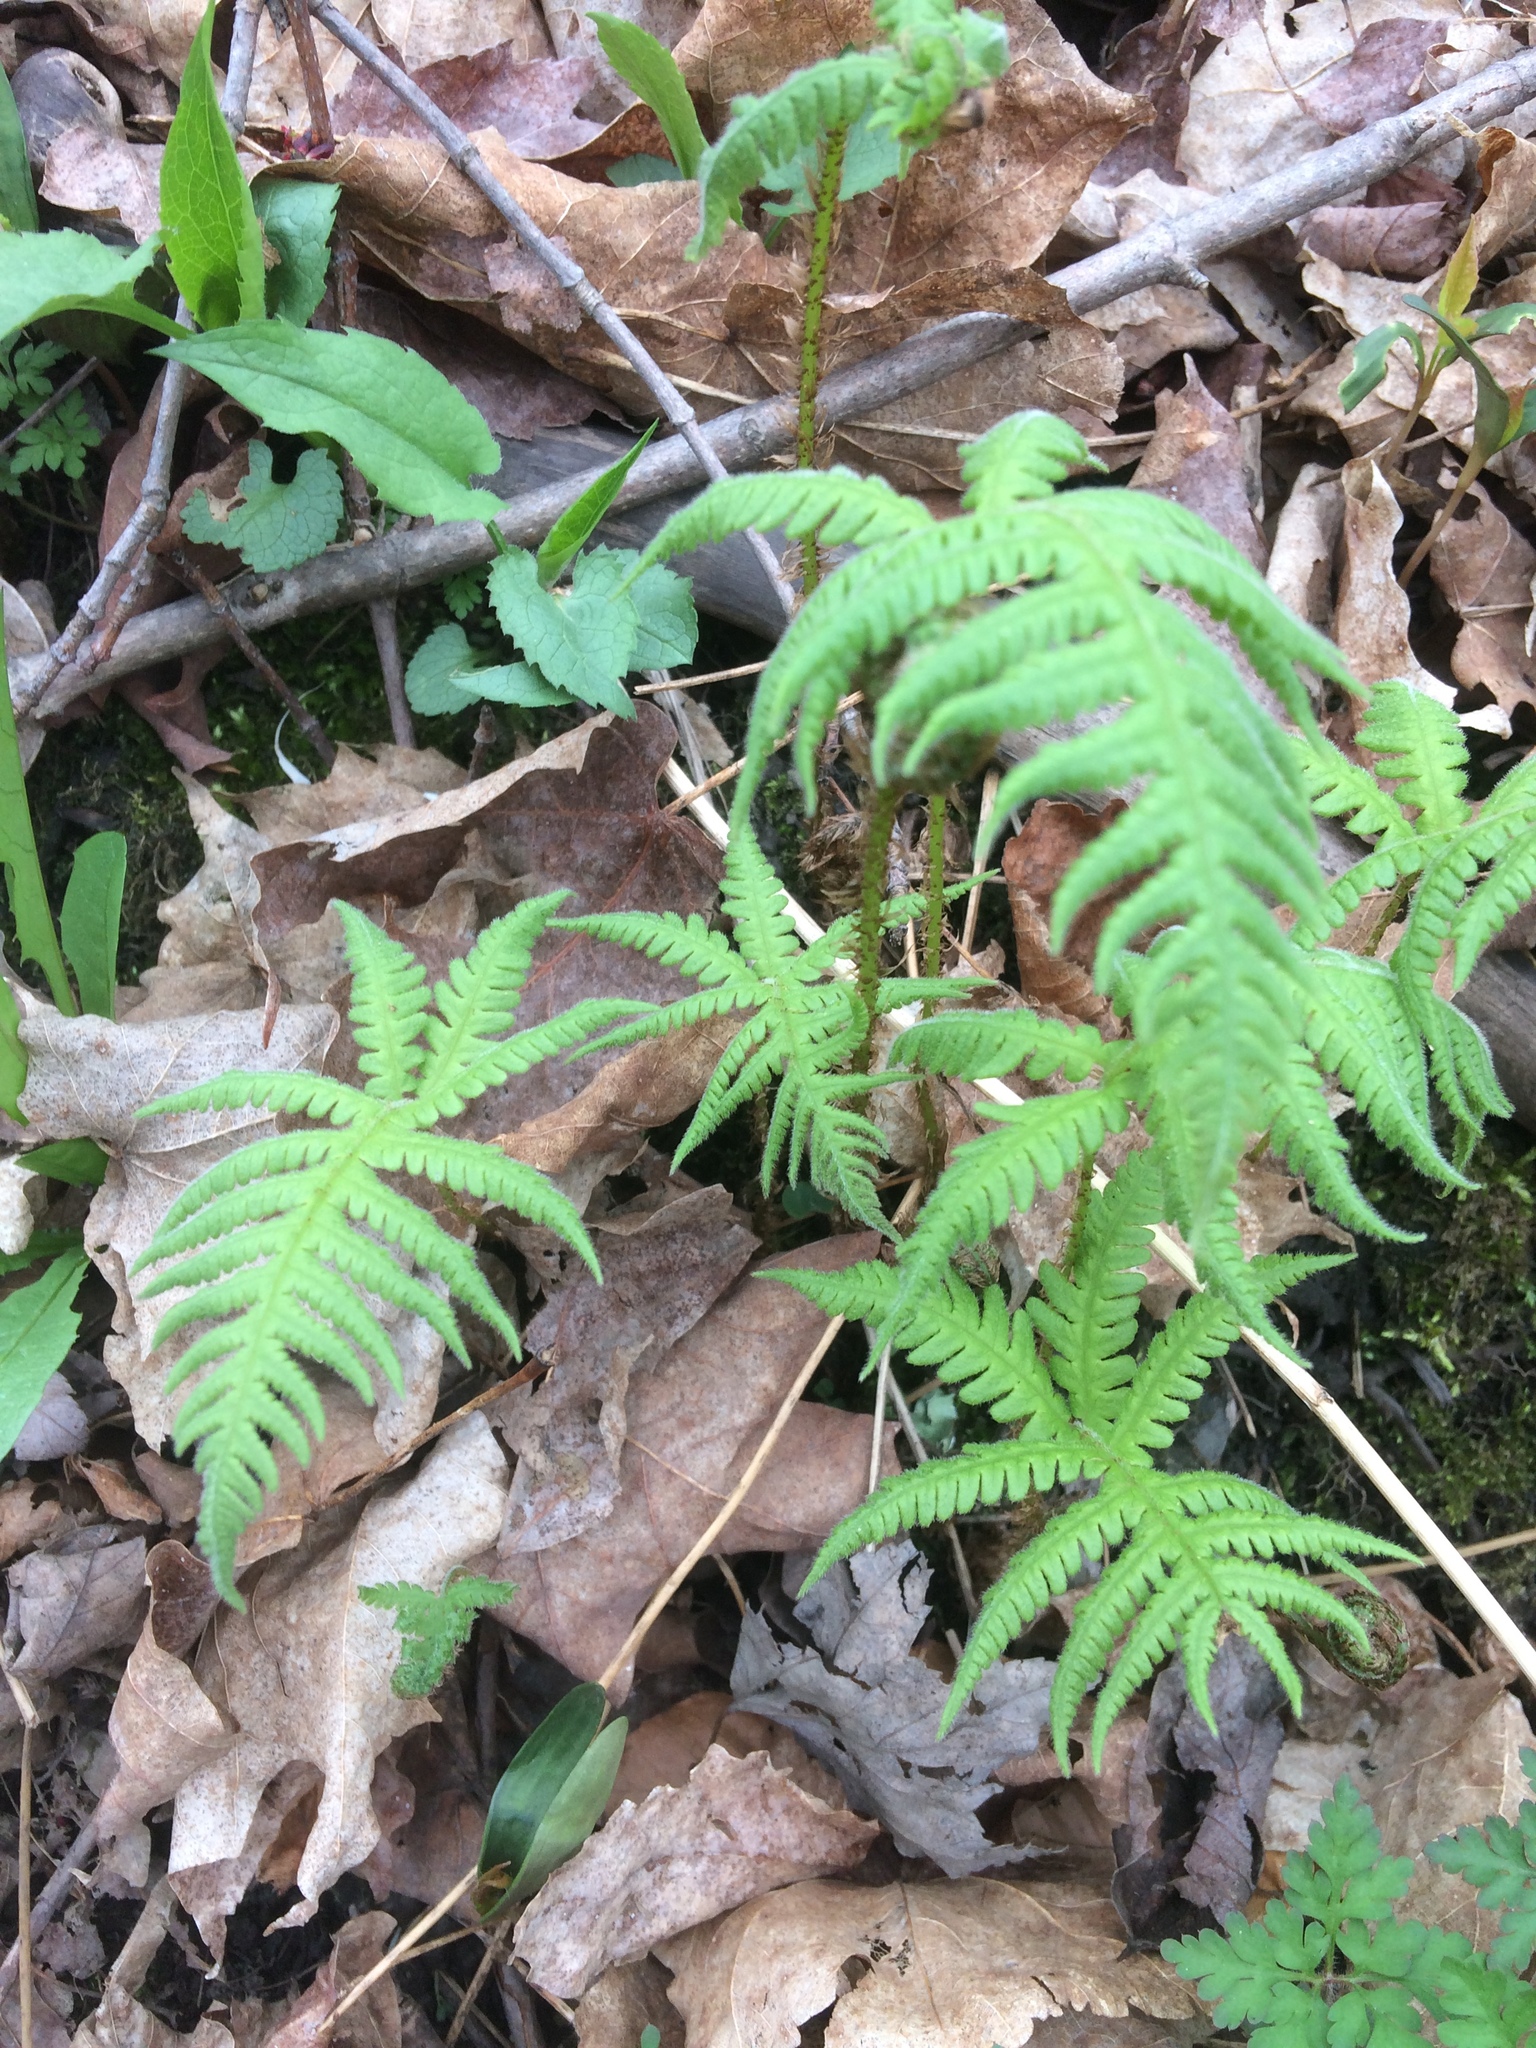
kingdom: Plantae
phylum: Tracheophyta
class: Polypodiopsida
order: Polypodiales
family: Thelypteridaceae
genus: Phegopteris
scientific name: Phegopteris connectilis
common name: Beech fern
